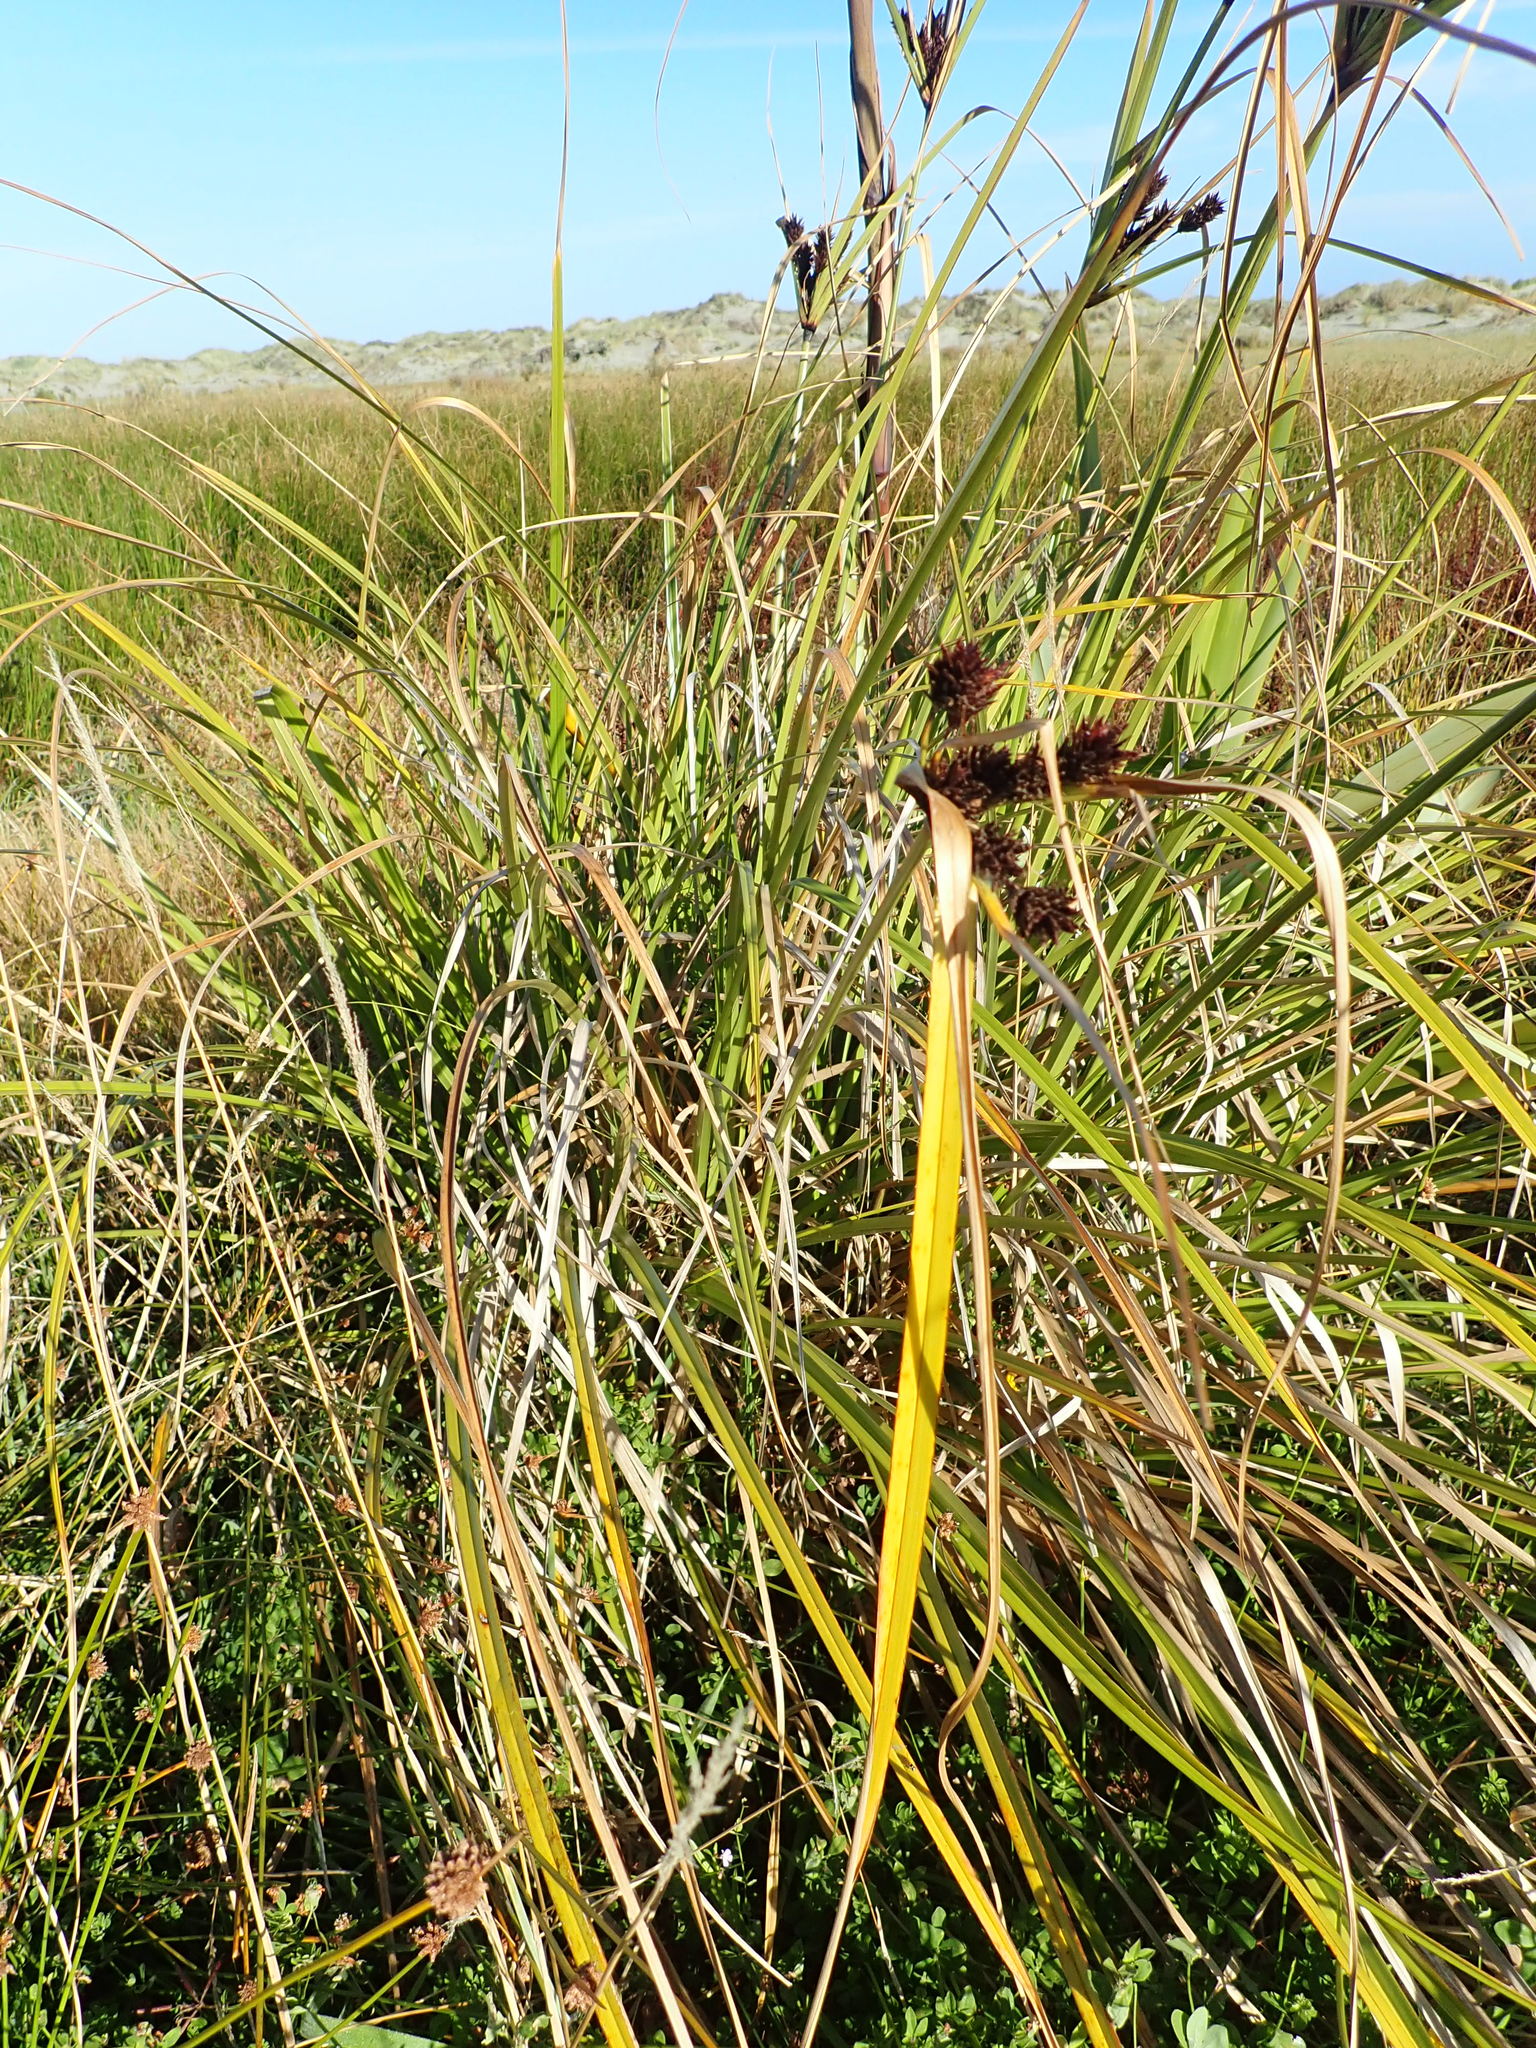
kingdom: Plantae
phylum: Tracheophyta
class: Liliopsida
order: Poales
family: Cyperaceae
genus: Cyperus
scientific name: Cyperus ustulatus
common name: Giant umbrella-sedge
